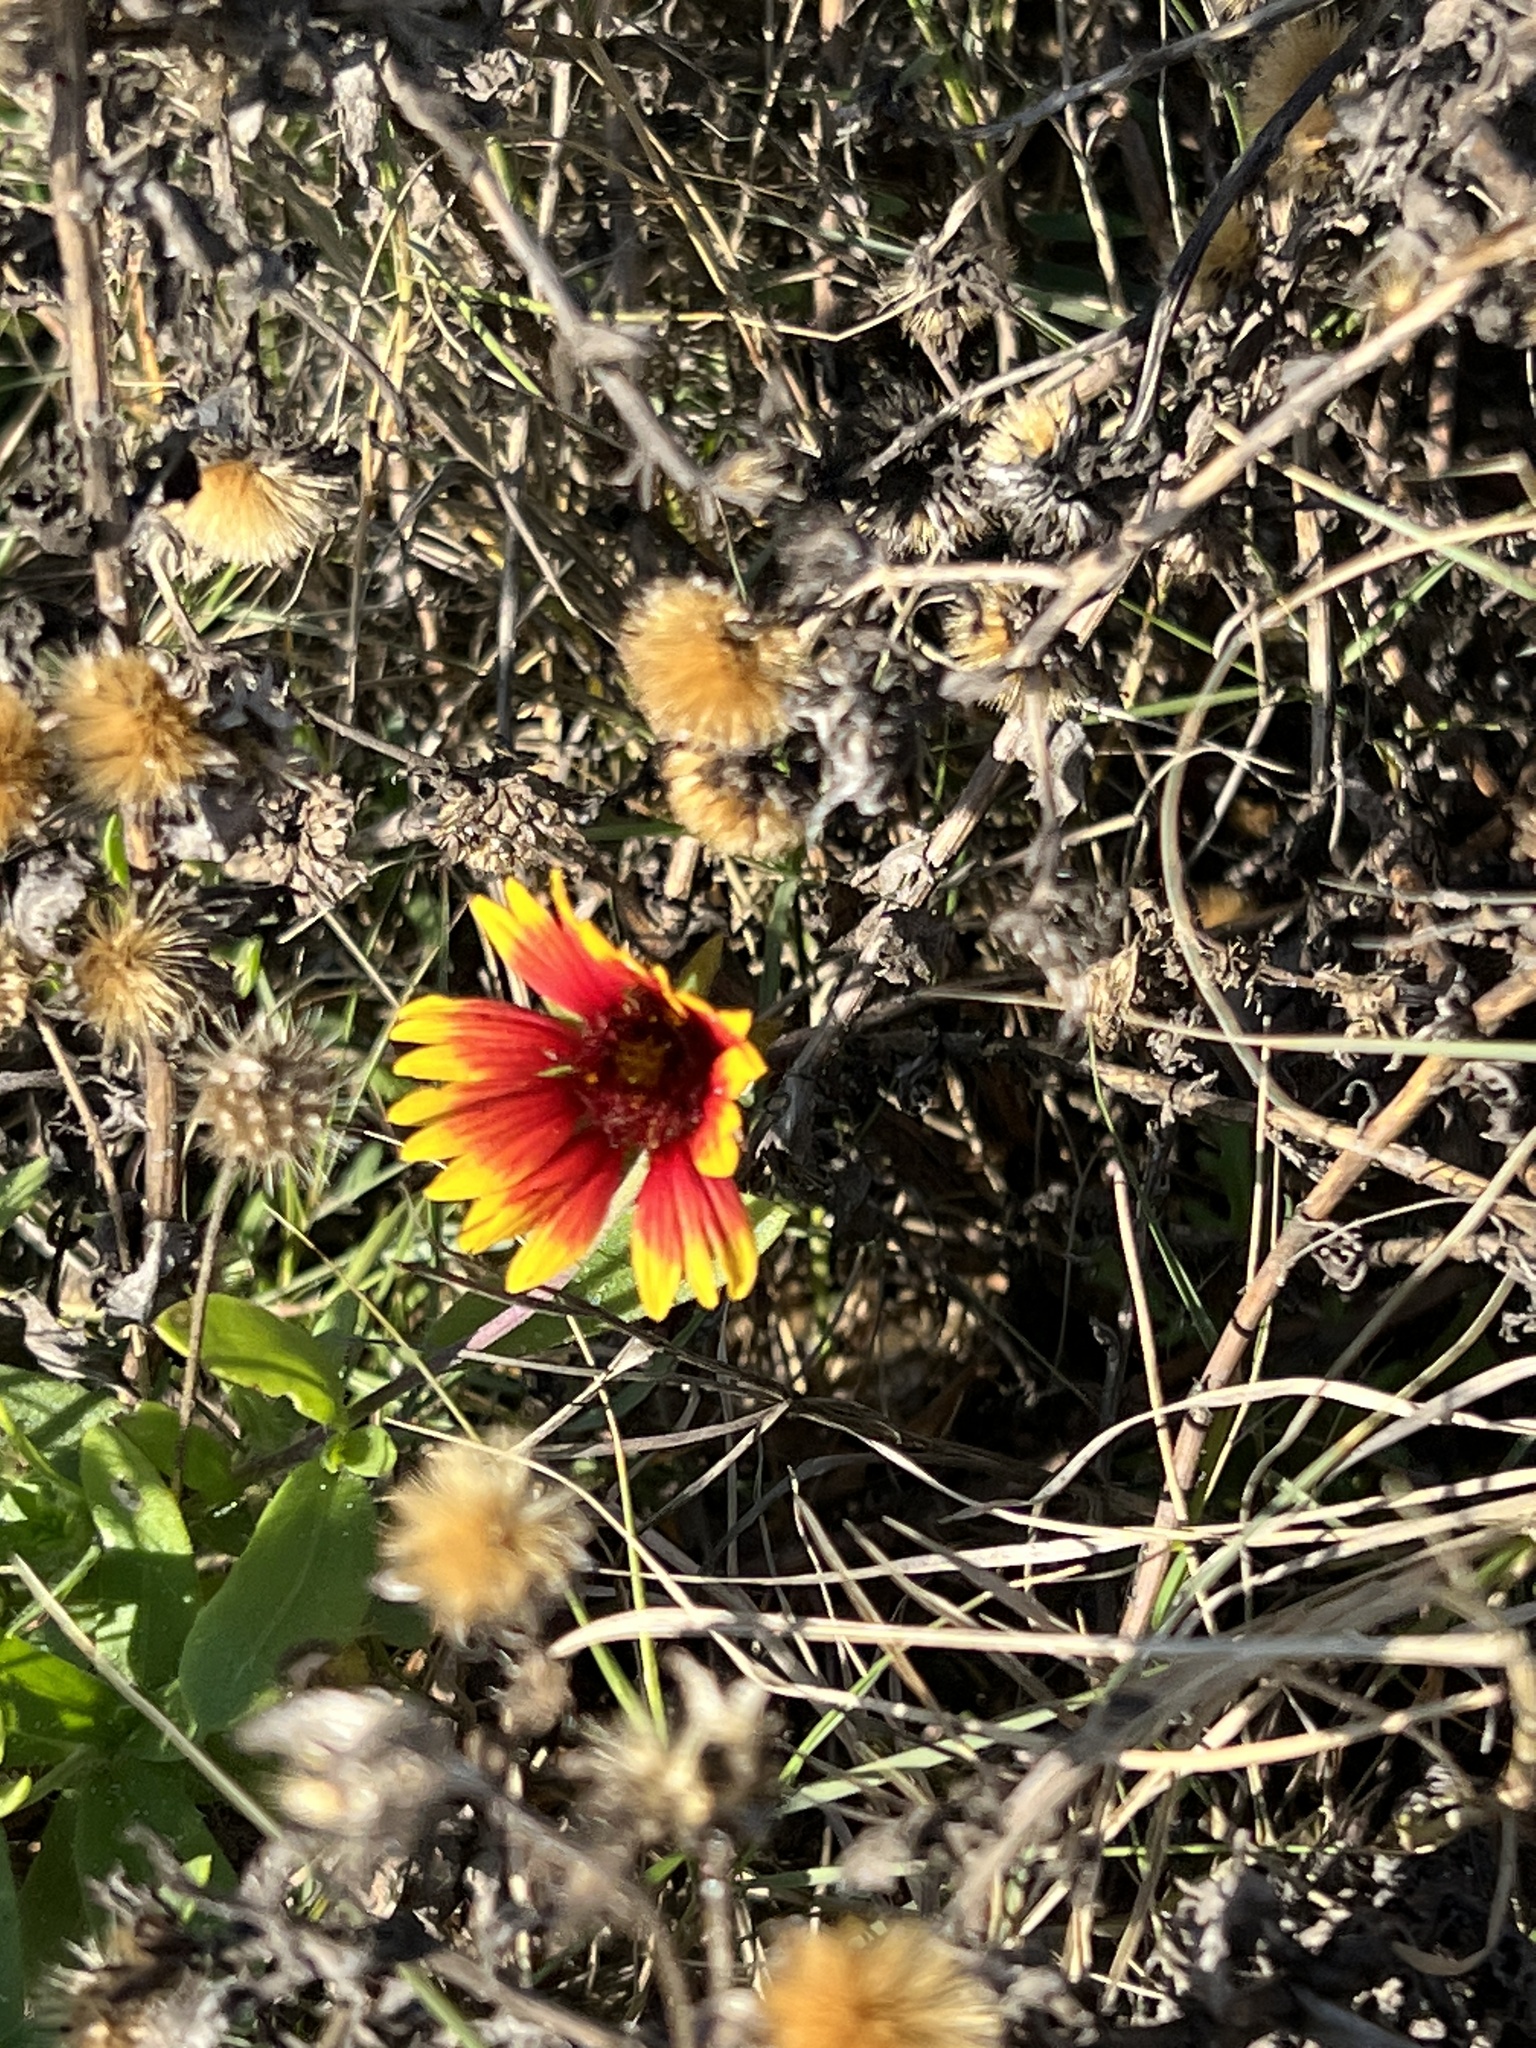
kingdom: Plantae
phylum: Tracheophyta
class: Magnoliopsida
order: Asterales
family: Asteraceae
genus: Gaillardia
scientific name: Gaillardia pulchella
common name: Firewheel
